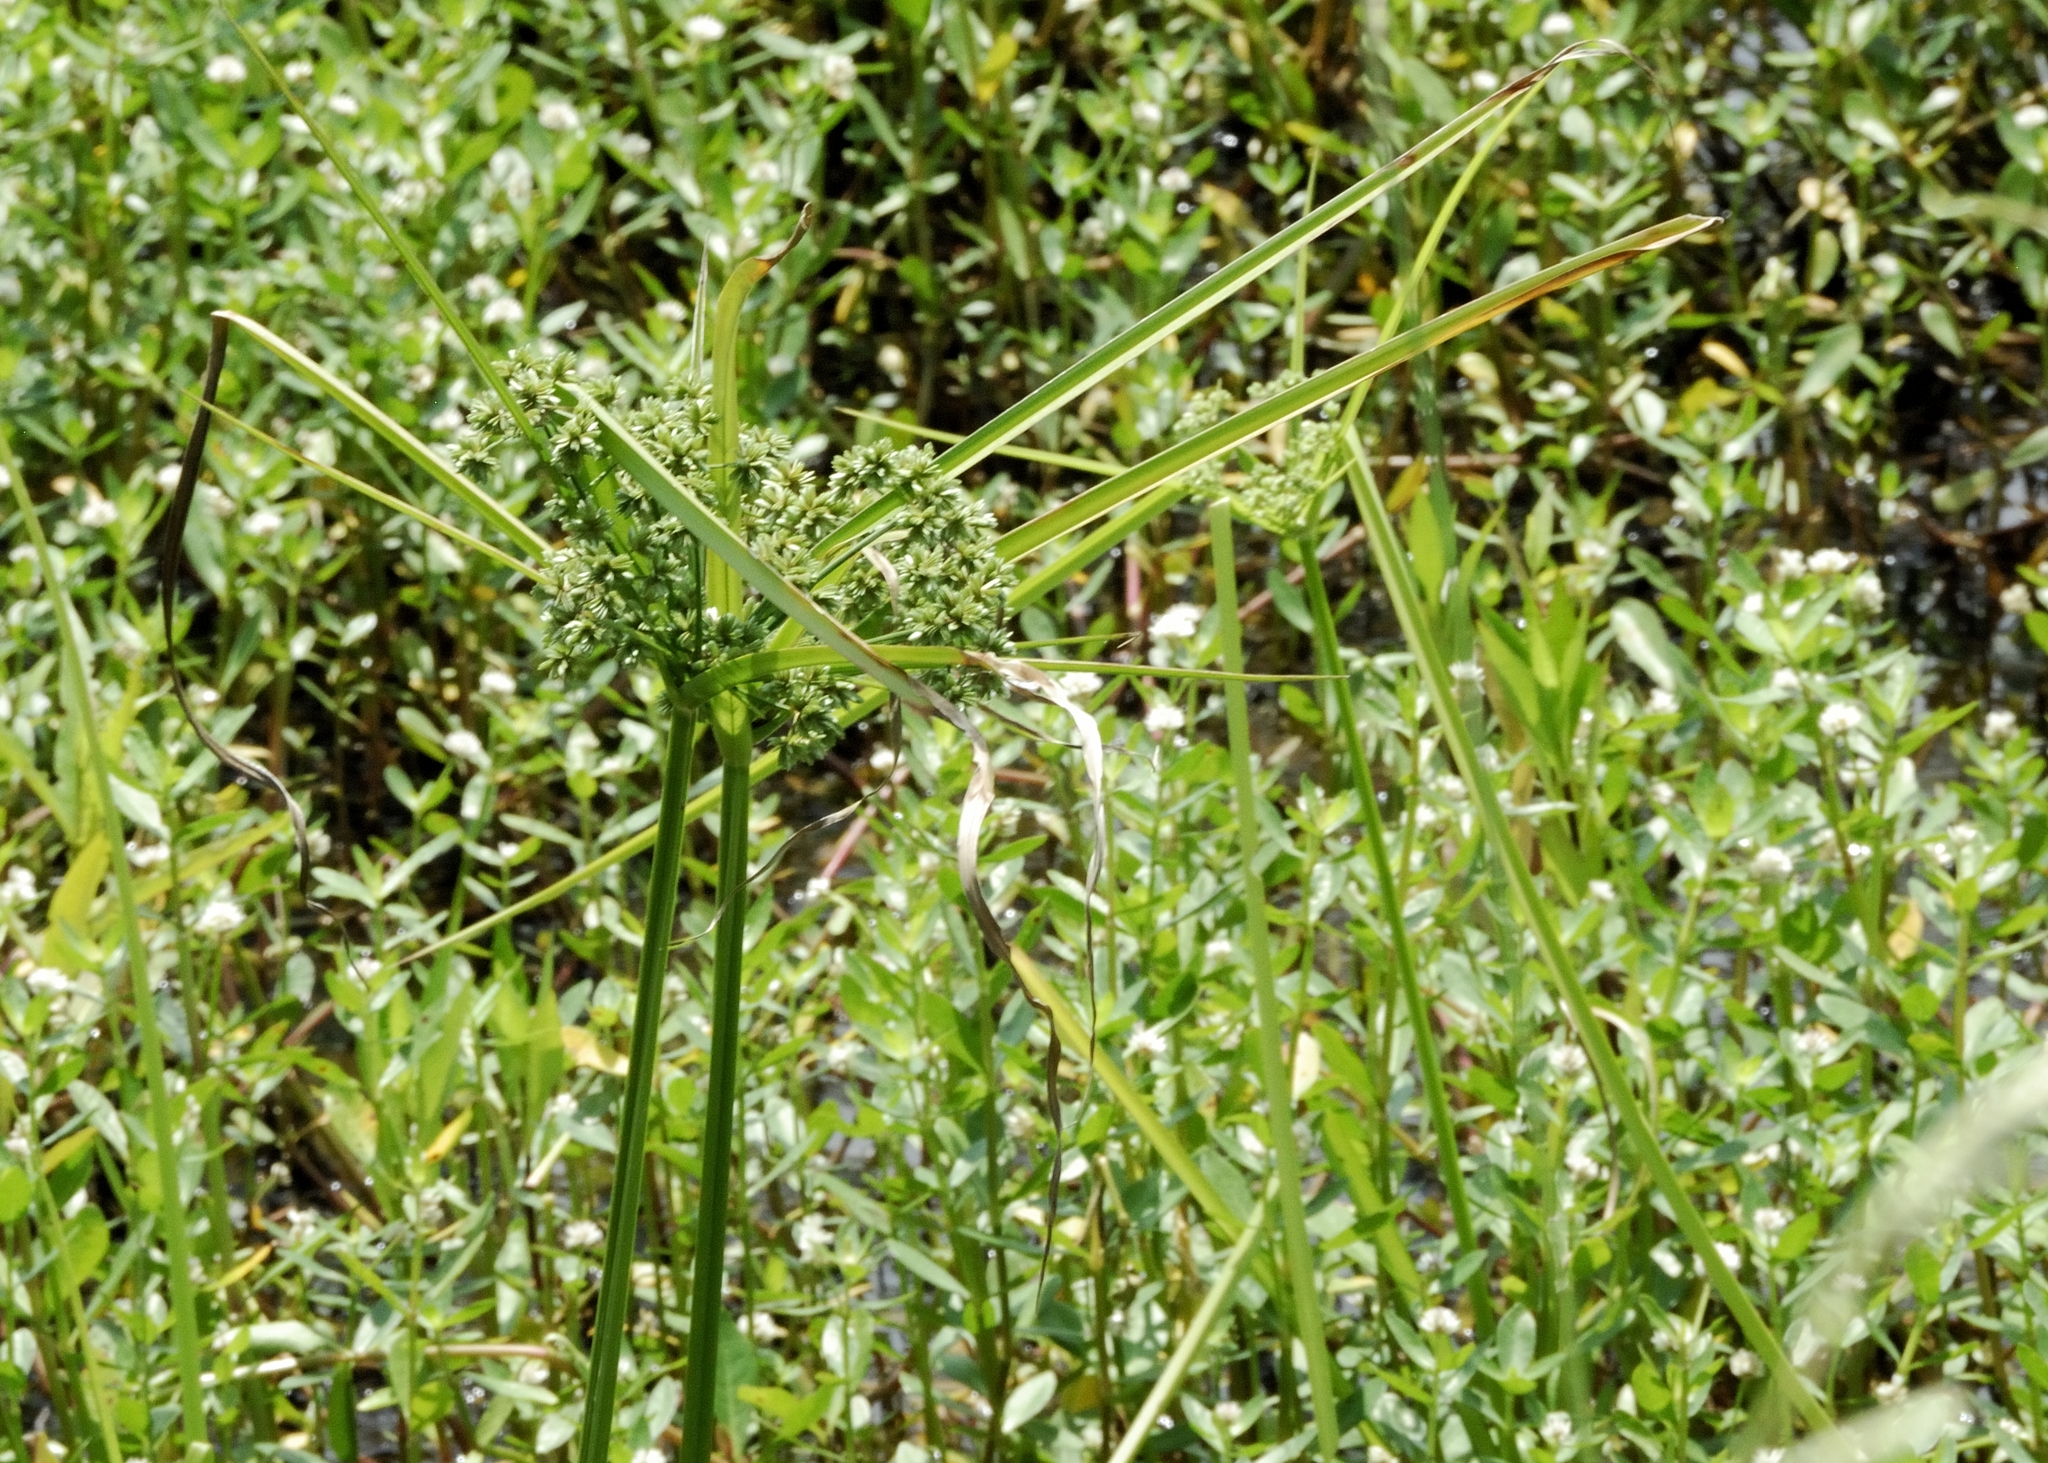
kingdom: Plantae
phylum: Tracheophyta
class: Liliopsida
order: Poales
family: Cyperaceae
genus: Cyperus
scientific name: Cyperus virens
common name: Green flatsedge
